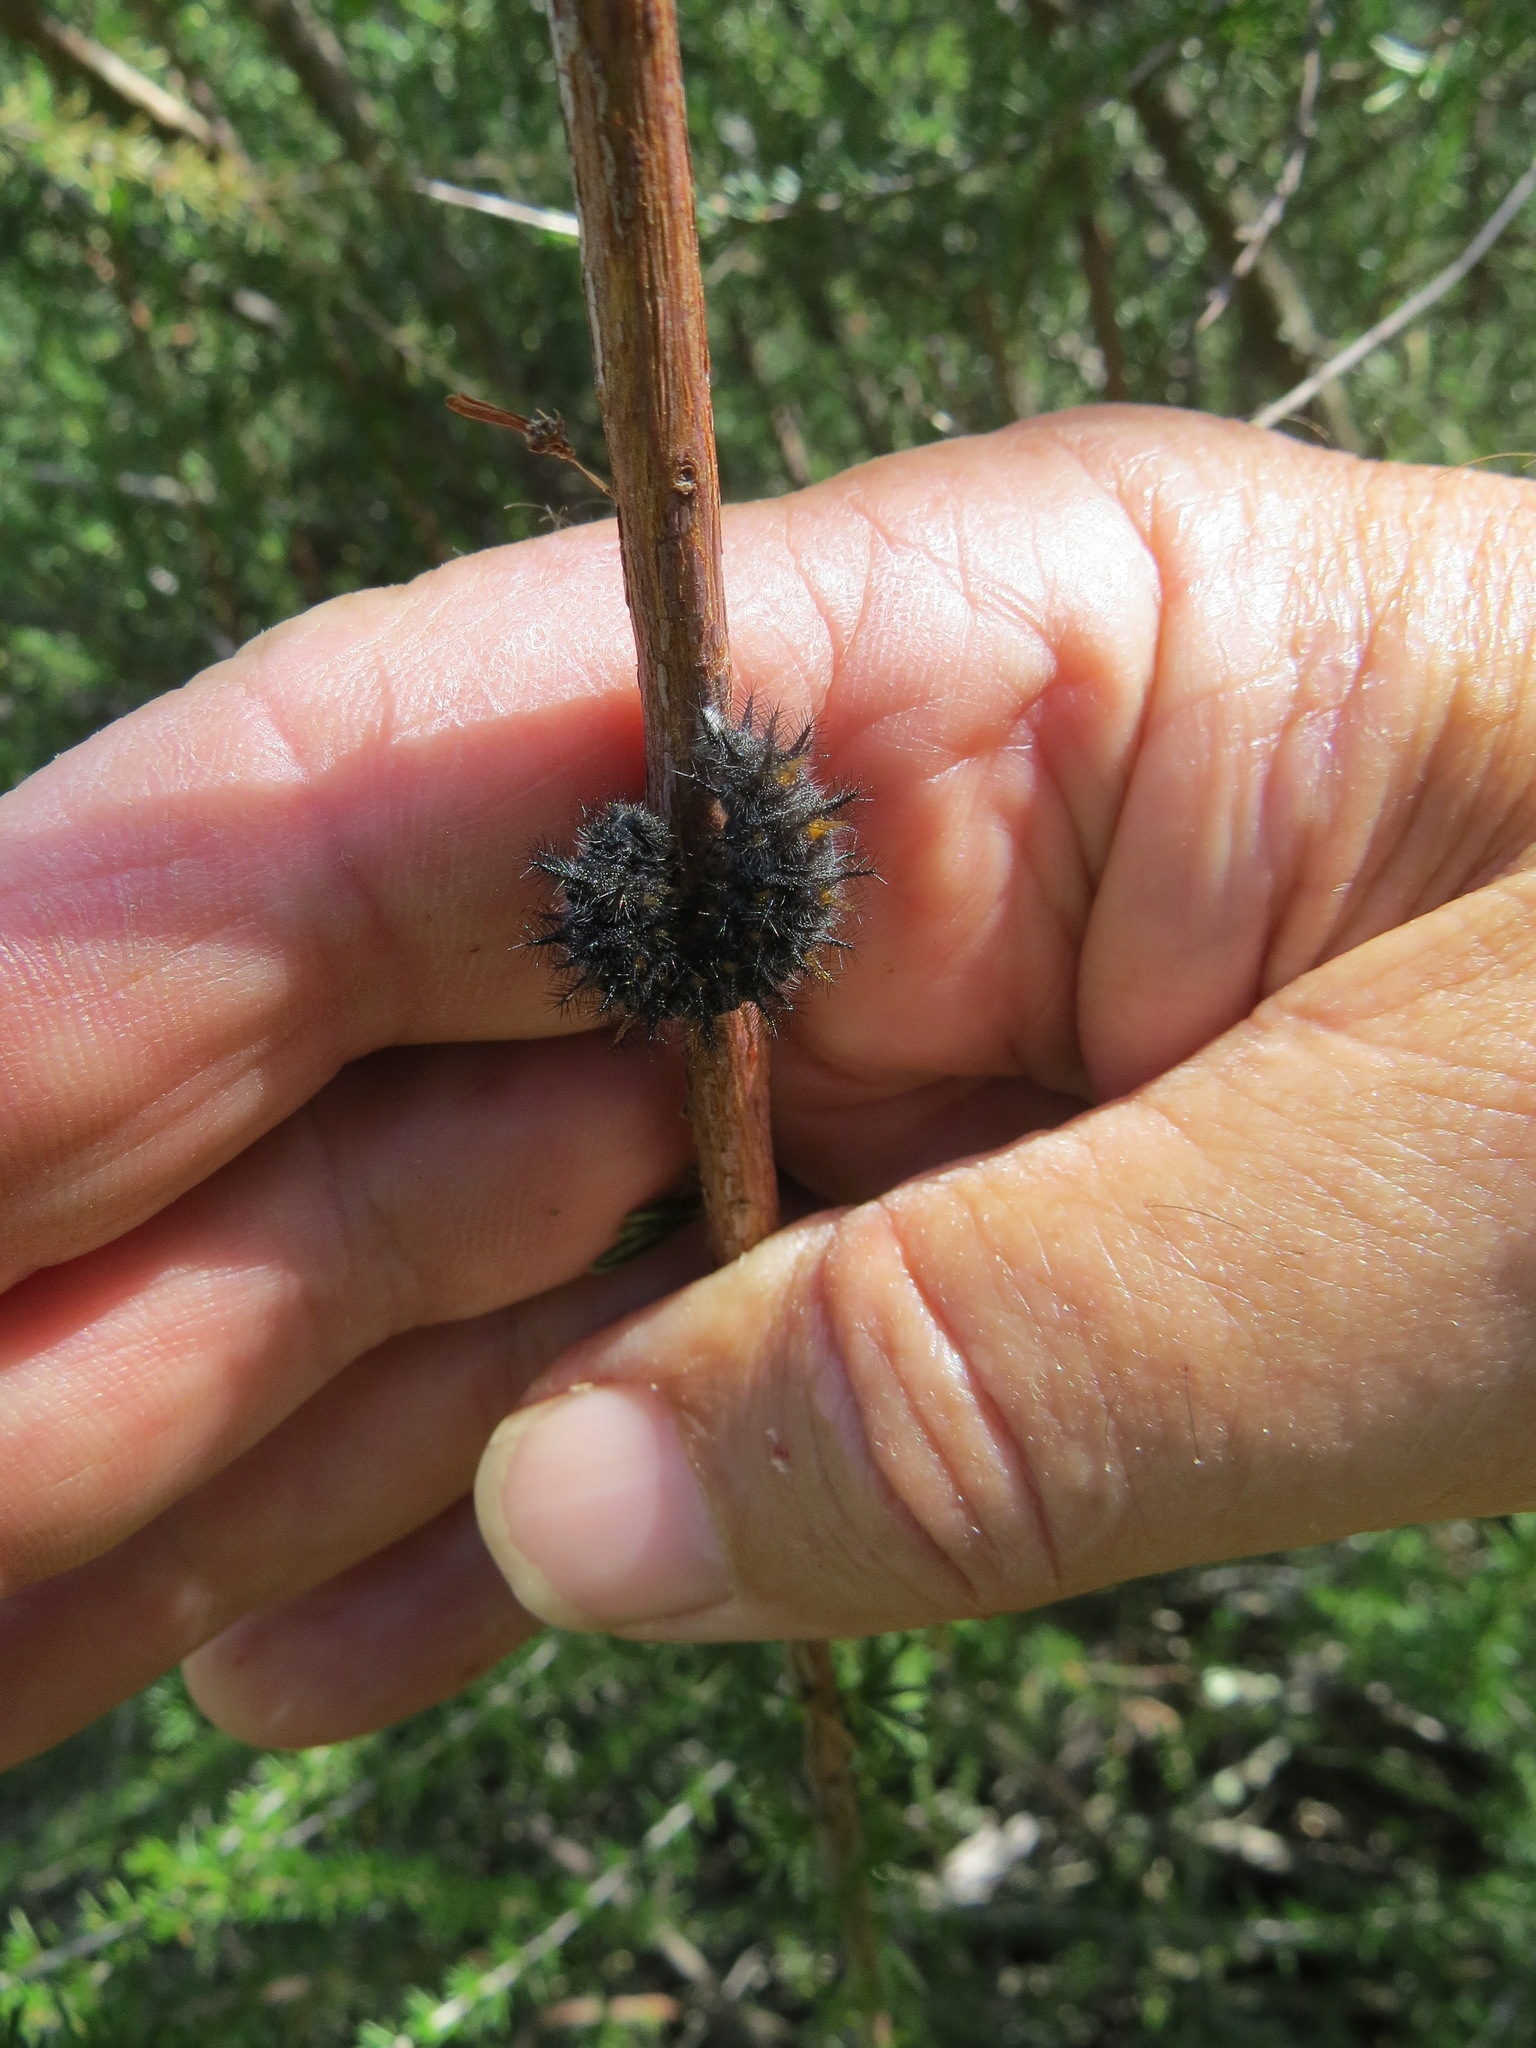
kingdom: Animalia
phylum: Arthropoda
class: Insecta
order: Lepidoptera
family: Nymphalidae
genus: Occidryas
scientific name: Occidryas chalcedona
